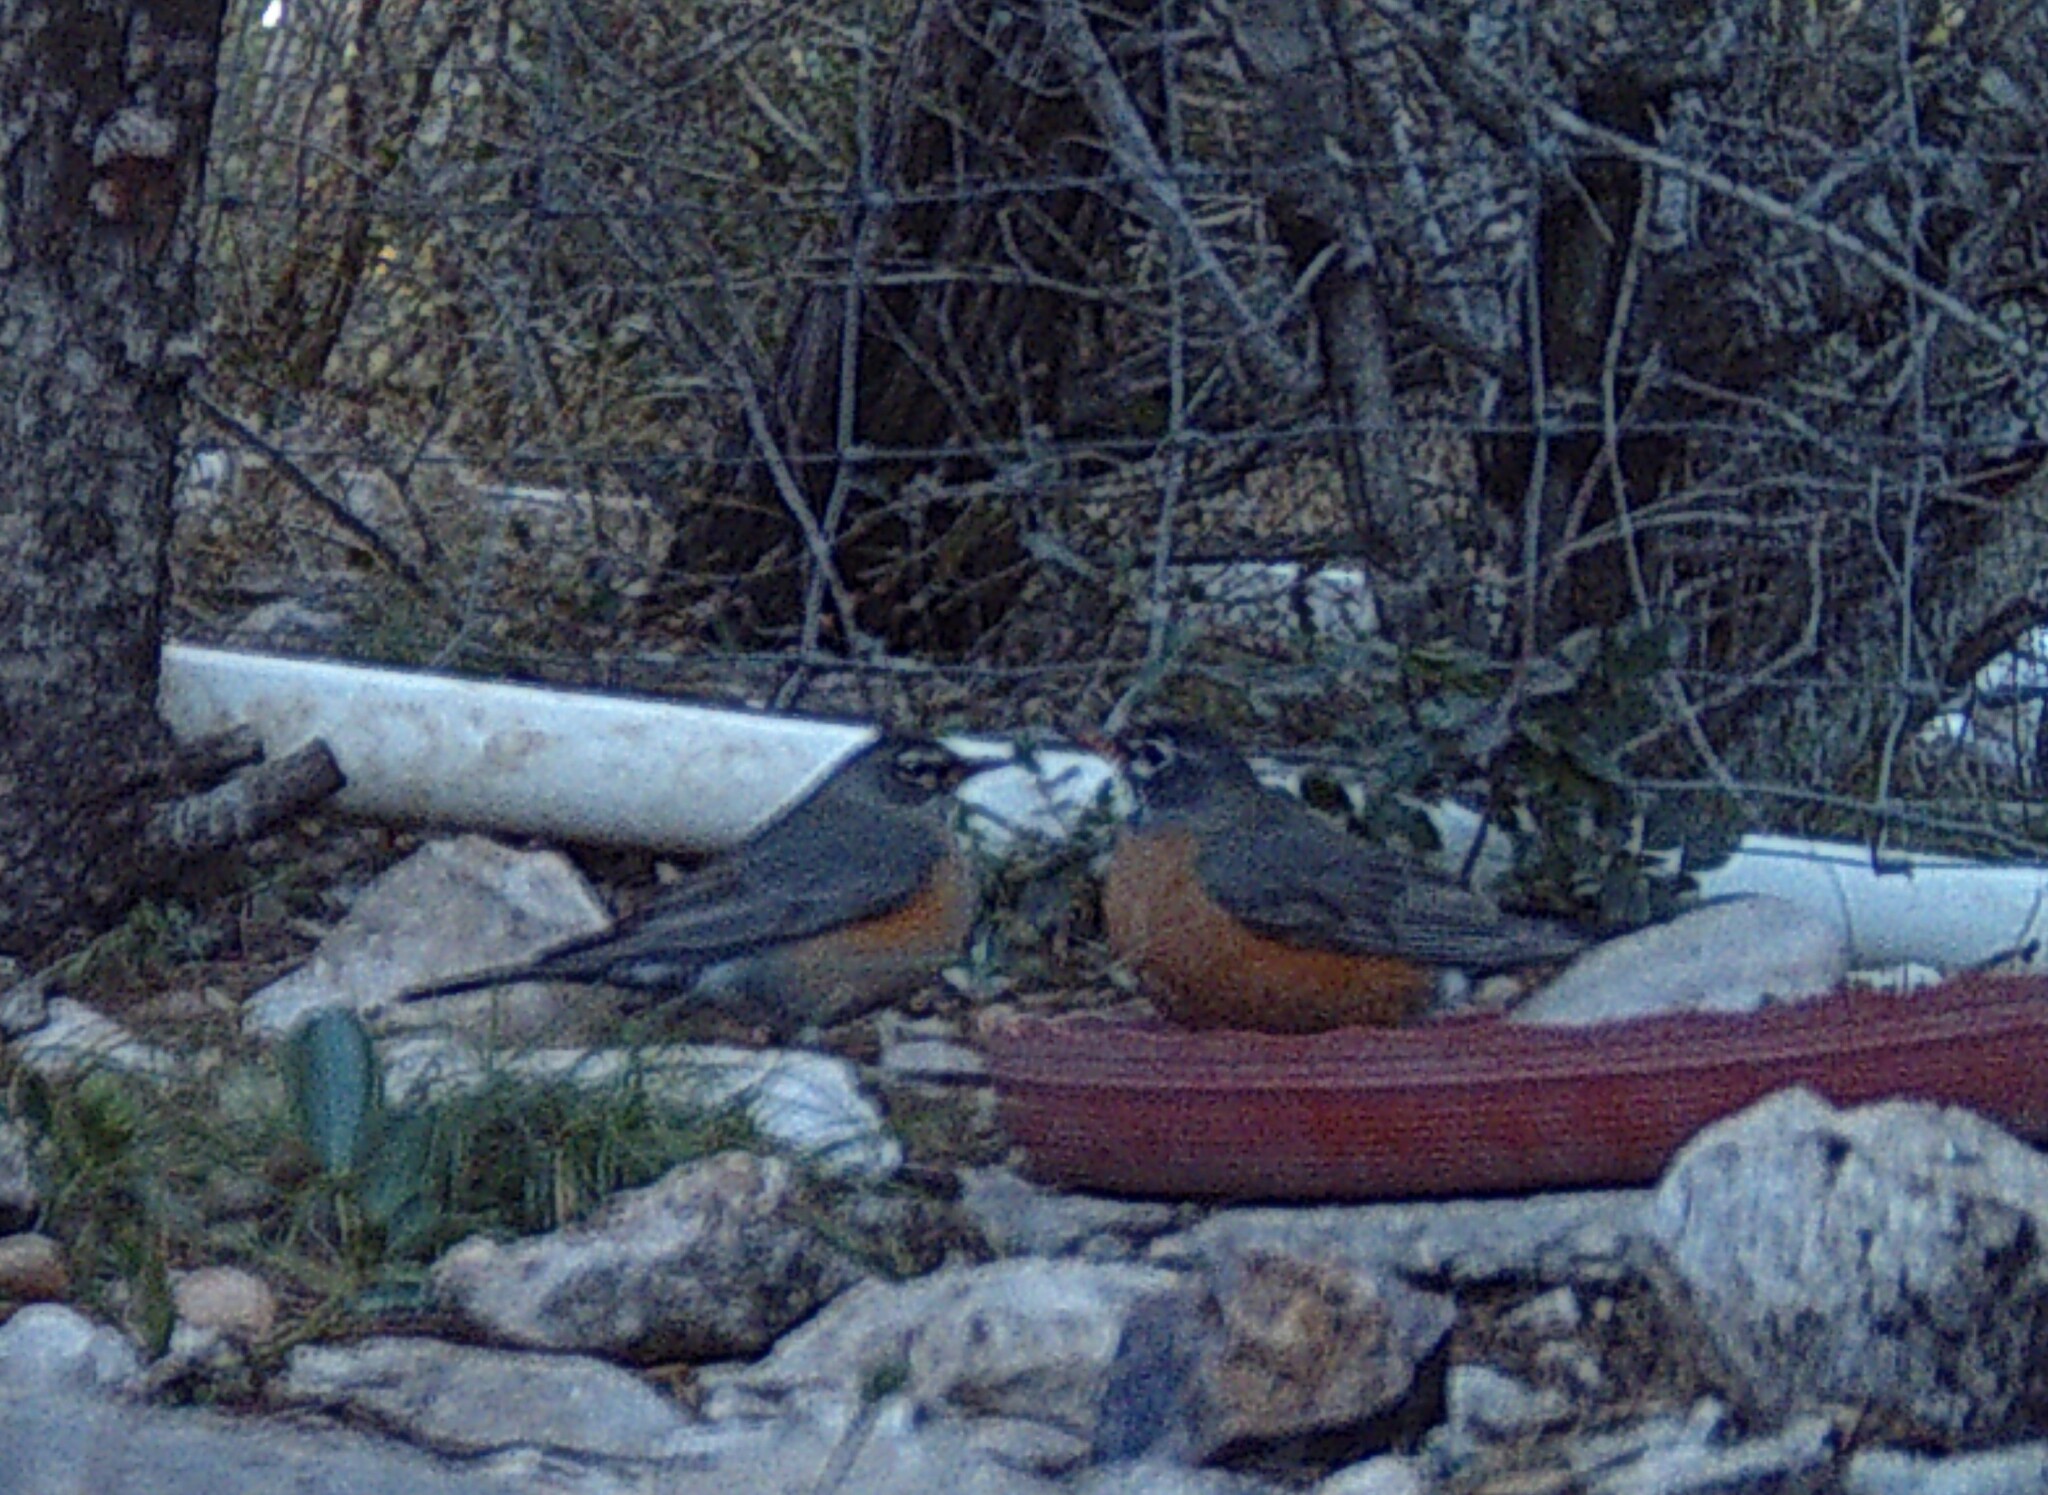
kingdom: Animalia
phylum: Chordata
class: Aves
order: Passeriformes
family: Turdidae
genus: Turdus
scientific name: Turdus migratorius
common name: American robin
